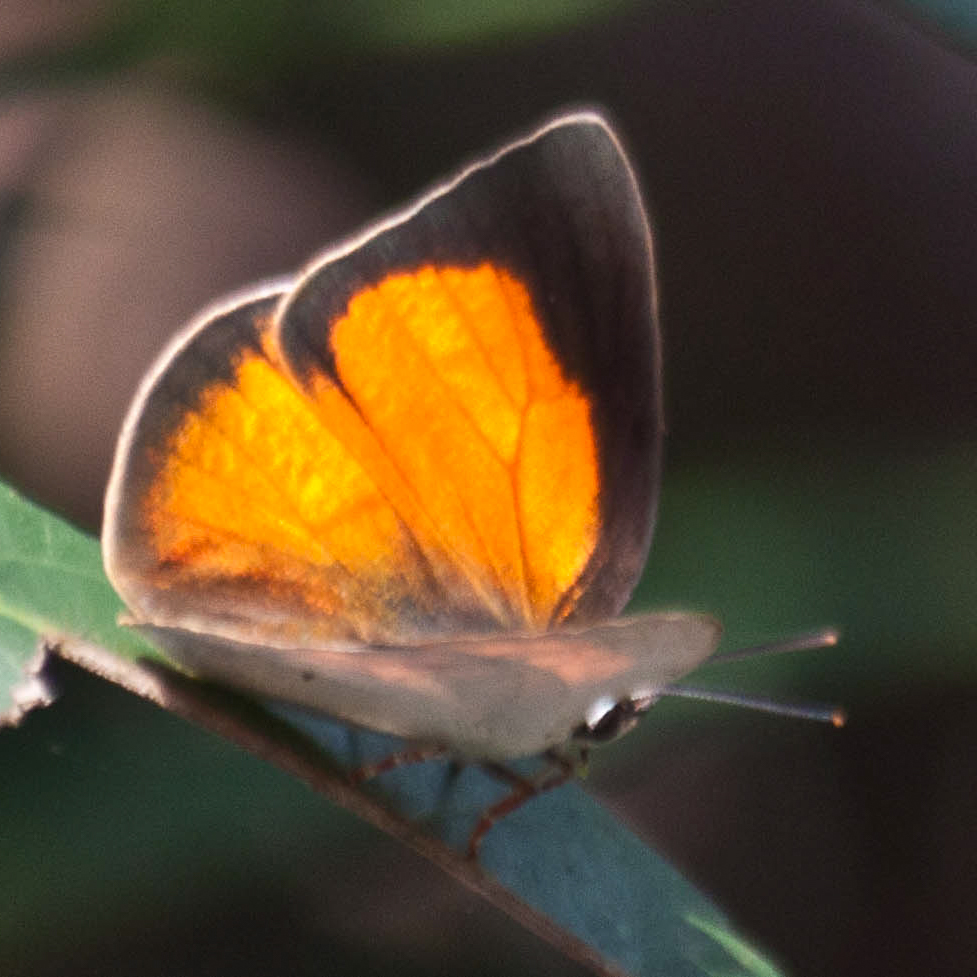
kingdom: Animalia
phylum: Arthropoda
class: Insecta
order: Lepidoptera
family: Lycaenidae
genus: Curetis
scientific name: Curetis saronis
